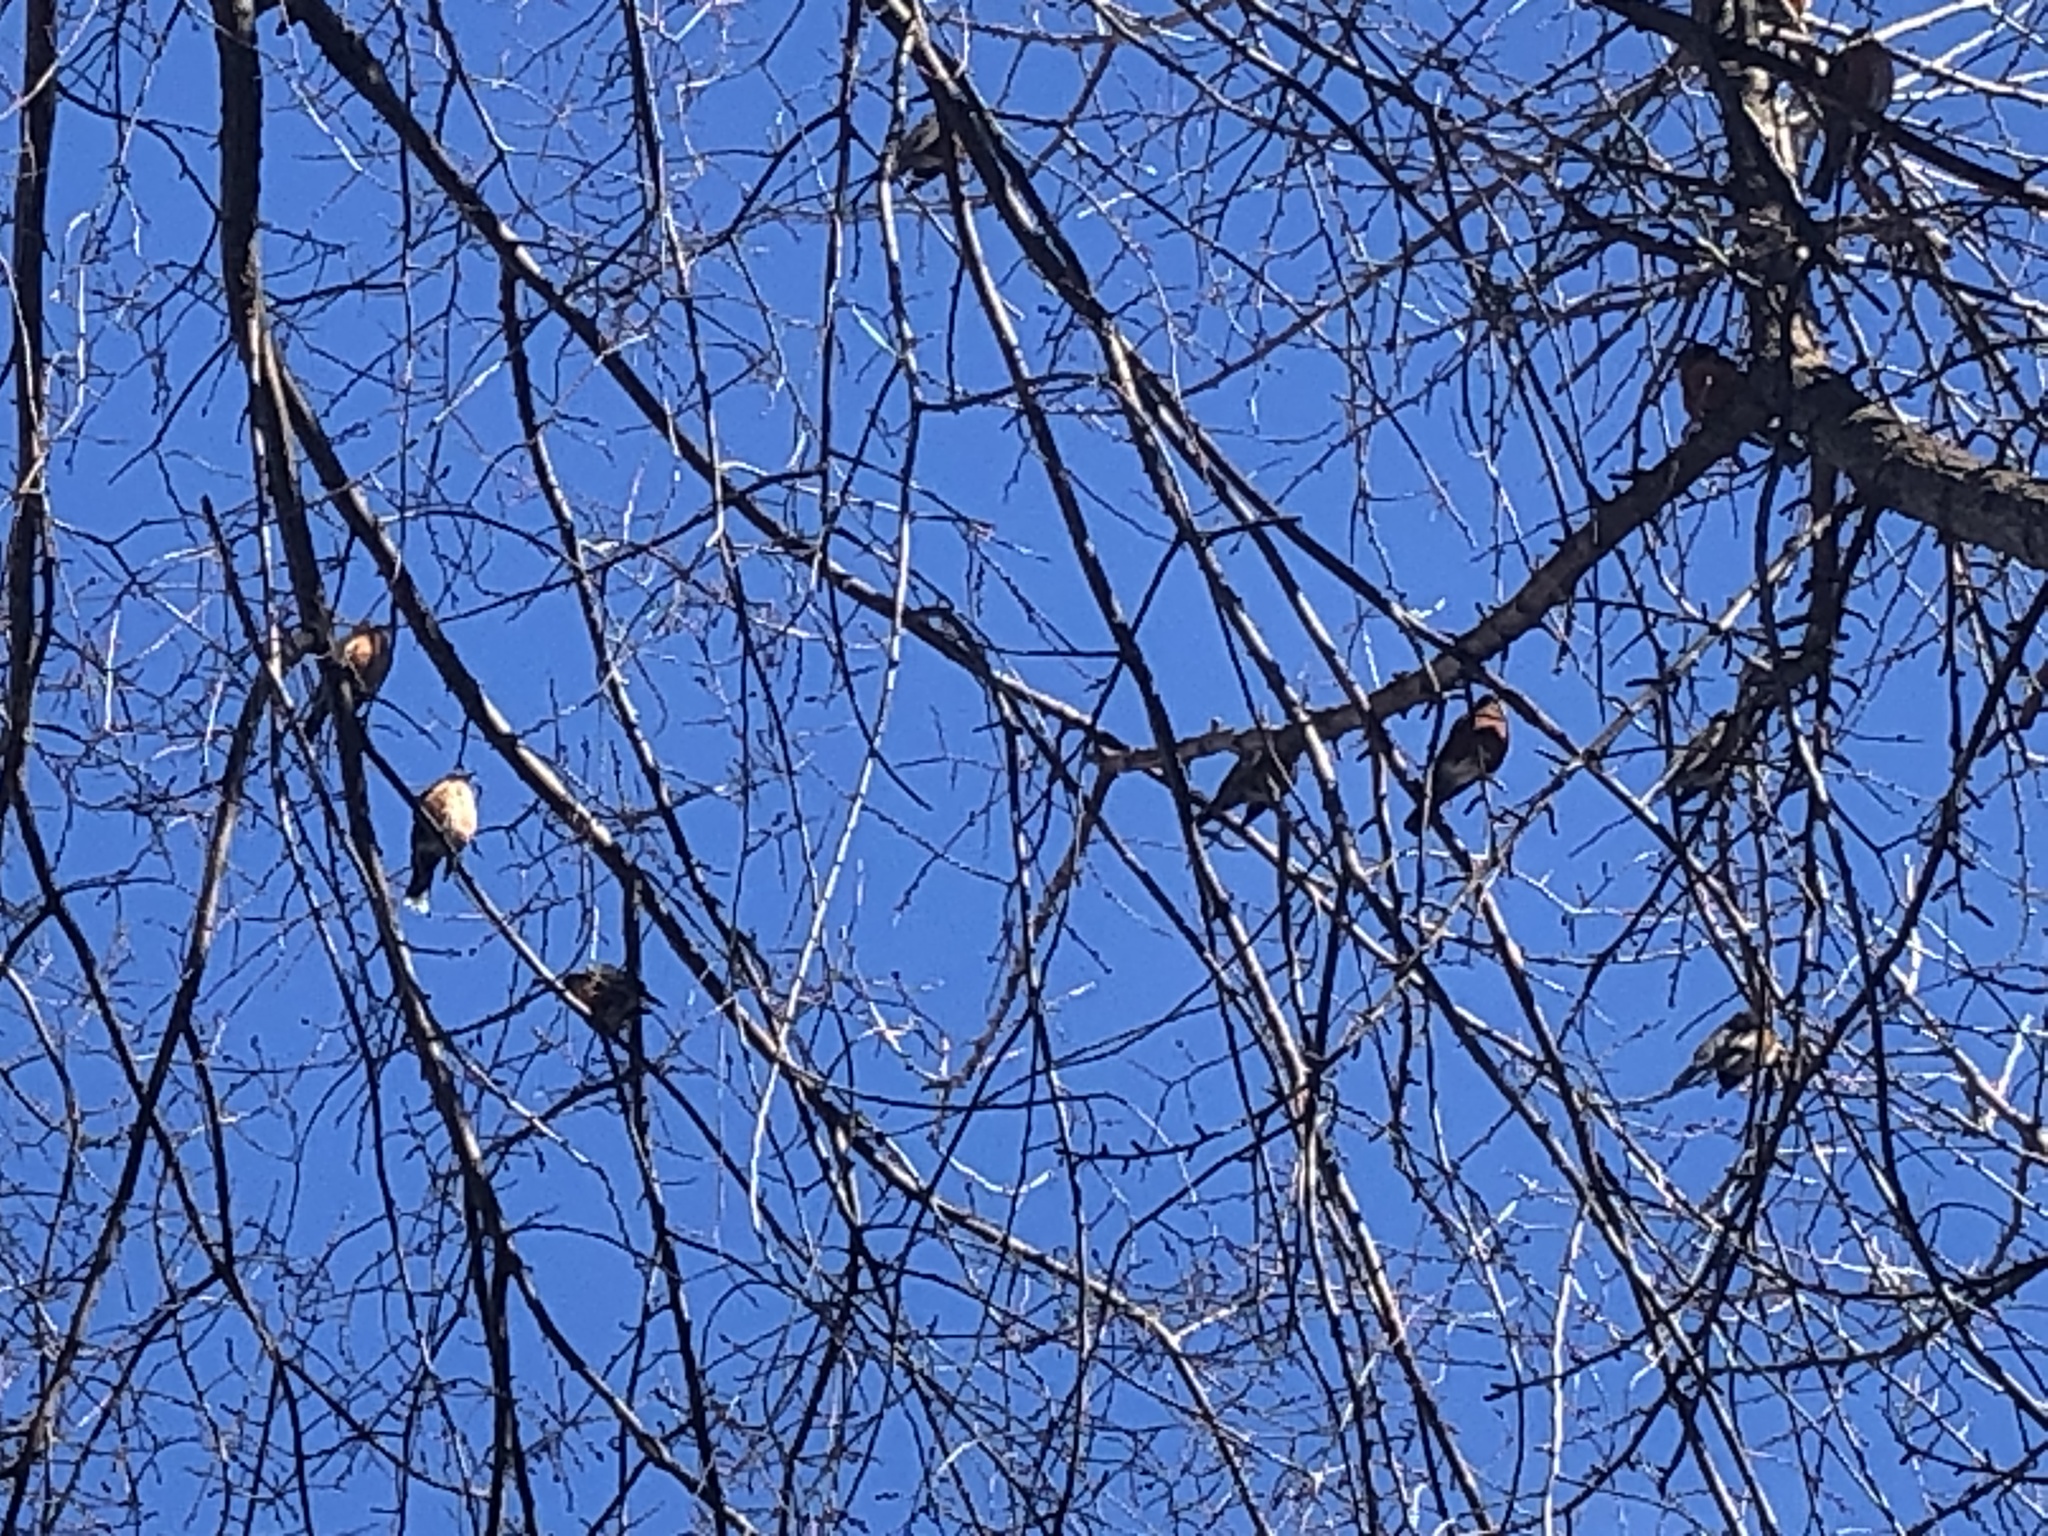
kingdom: Animalia
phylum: Chordata
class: Aves
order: Passeriformes
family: Turdidae
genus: Turdus
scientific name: Turdus migratorius
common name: American robin
